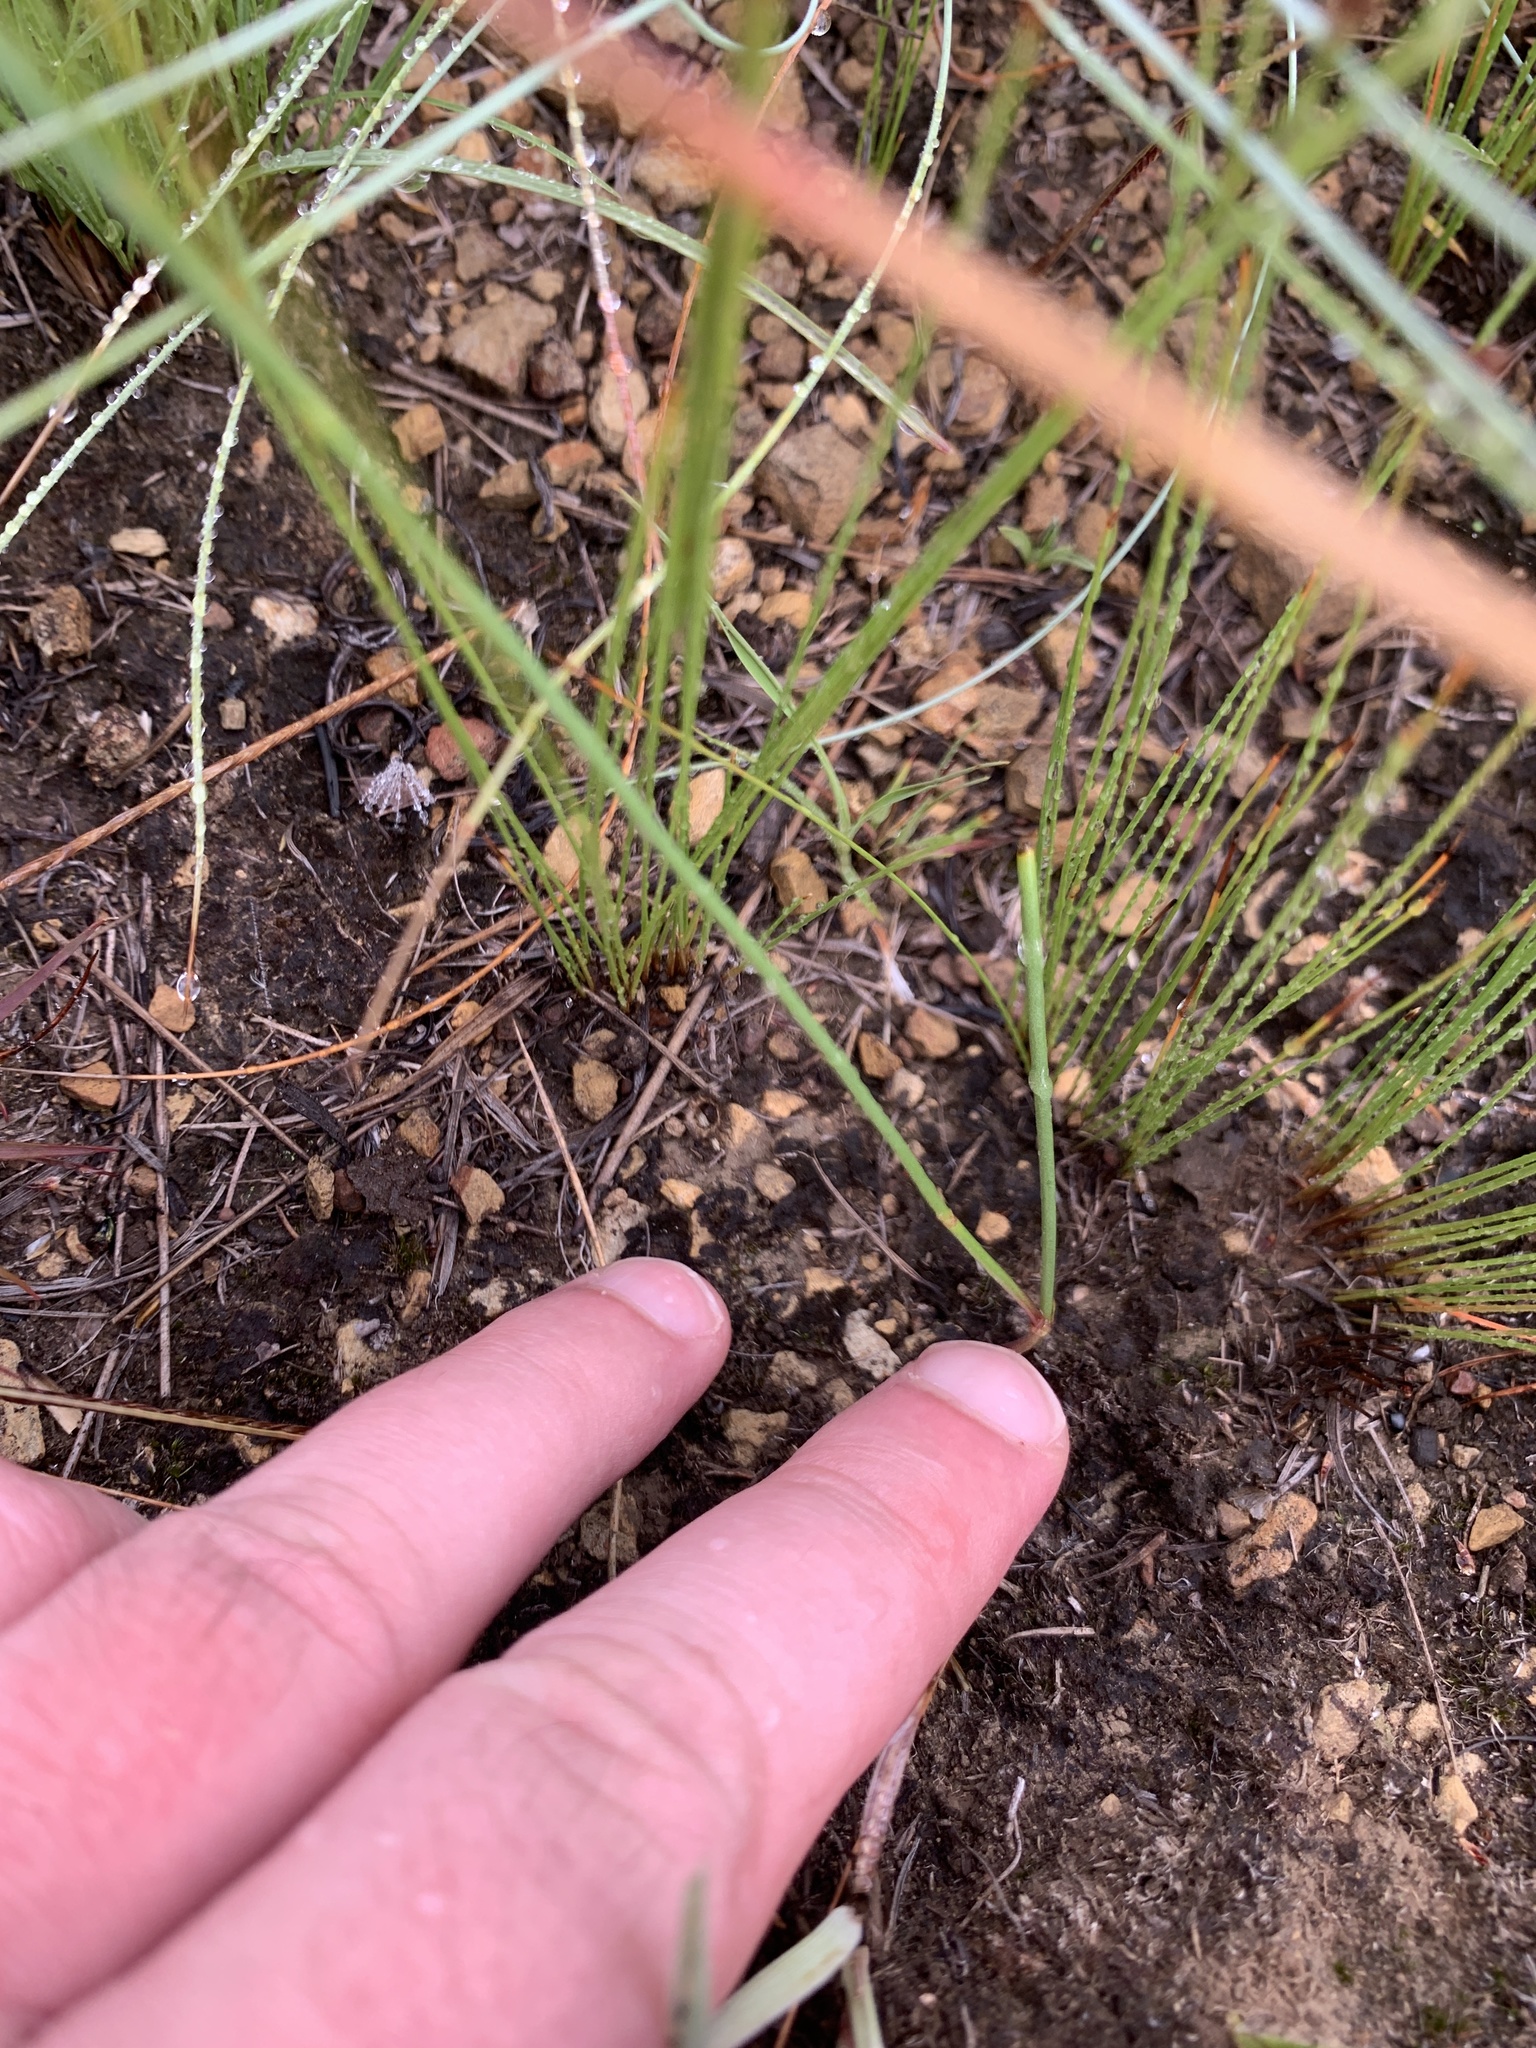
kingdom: Plantae
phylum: Tracheophyta
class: Magnoliopsida
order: Gentianales
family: Rubiaceae
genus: Kohautia
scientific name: Kohautia amatymbica
